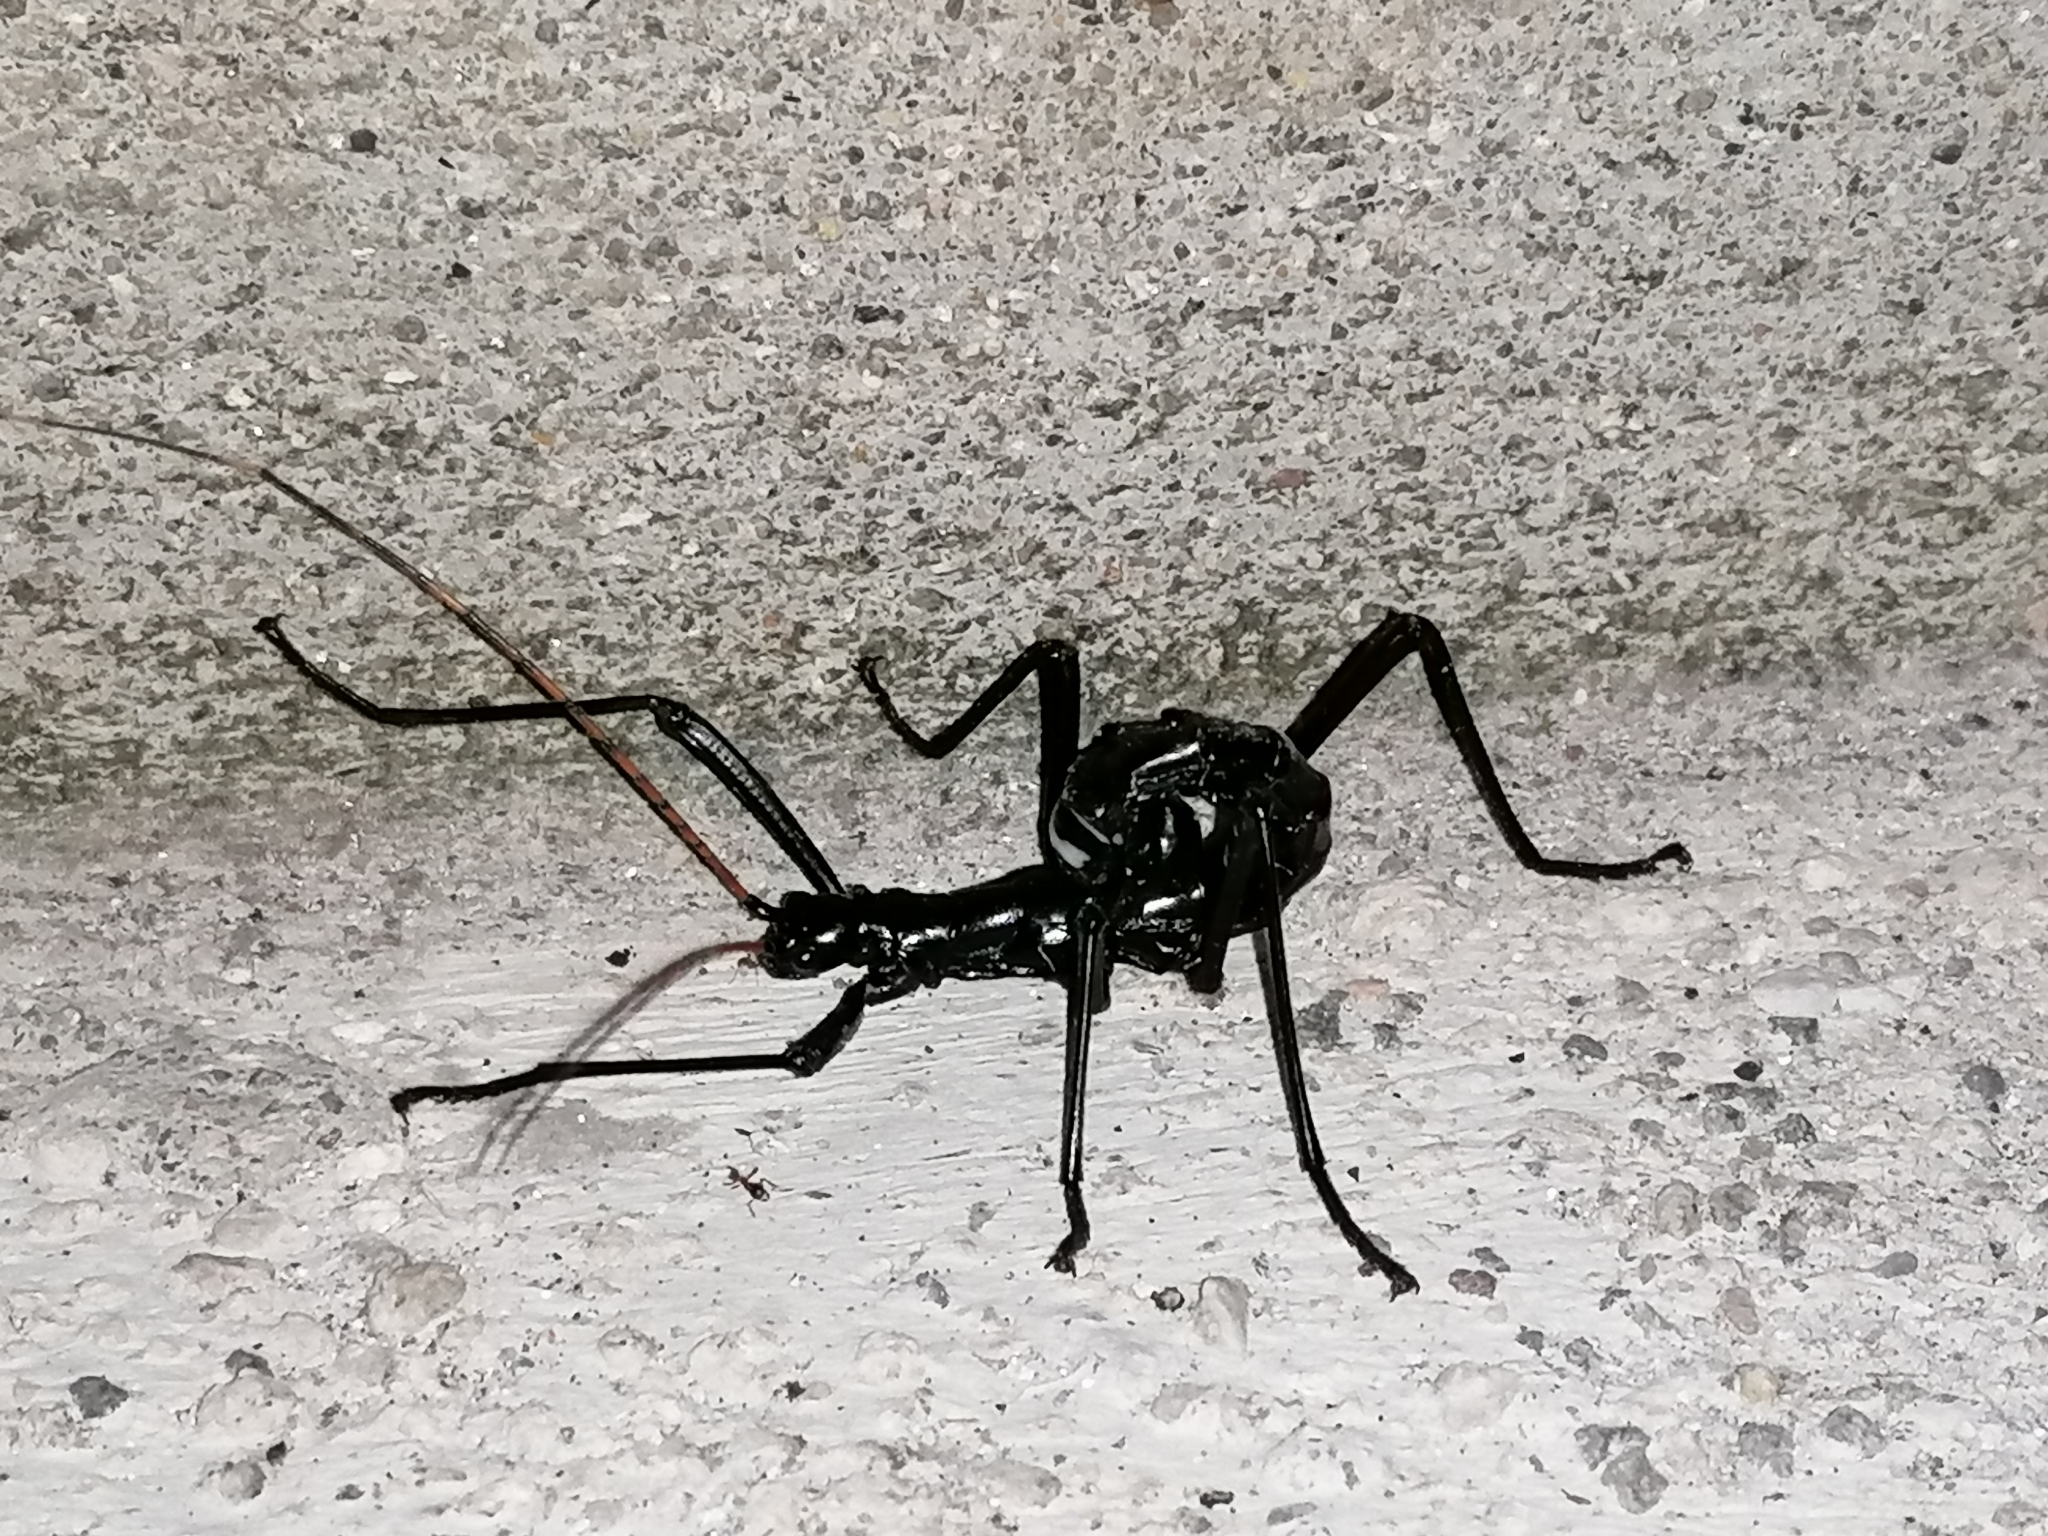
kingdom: Animalia
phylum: Arthropoda
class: Insecta
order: Phasmida
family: Pseudophasmatidae
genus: Autolyca
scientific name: Autolyca pallidicornis
